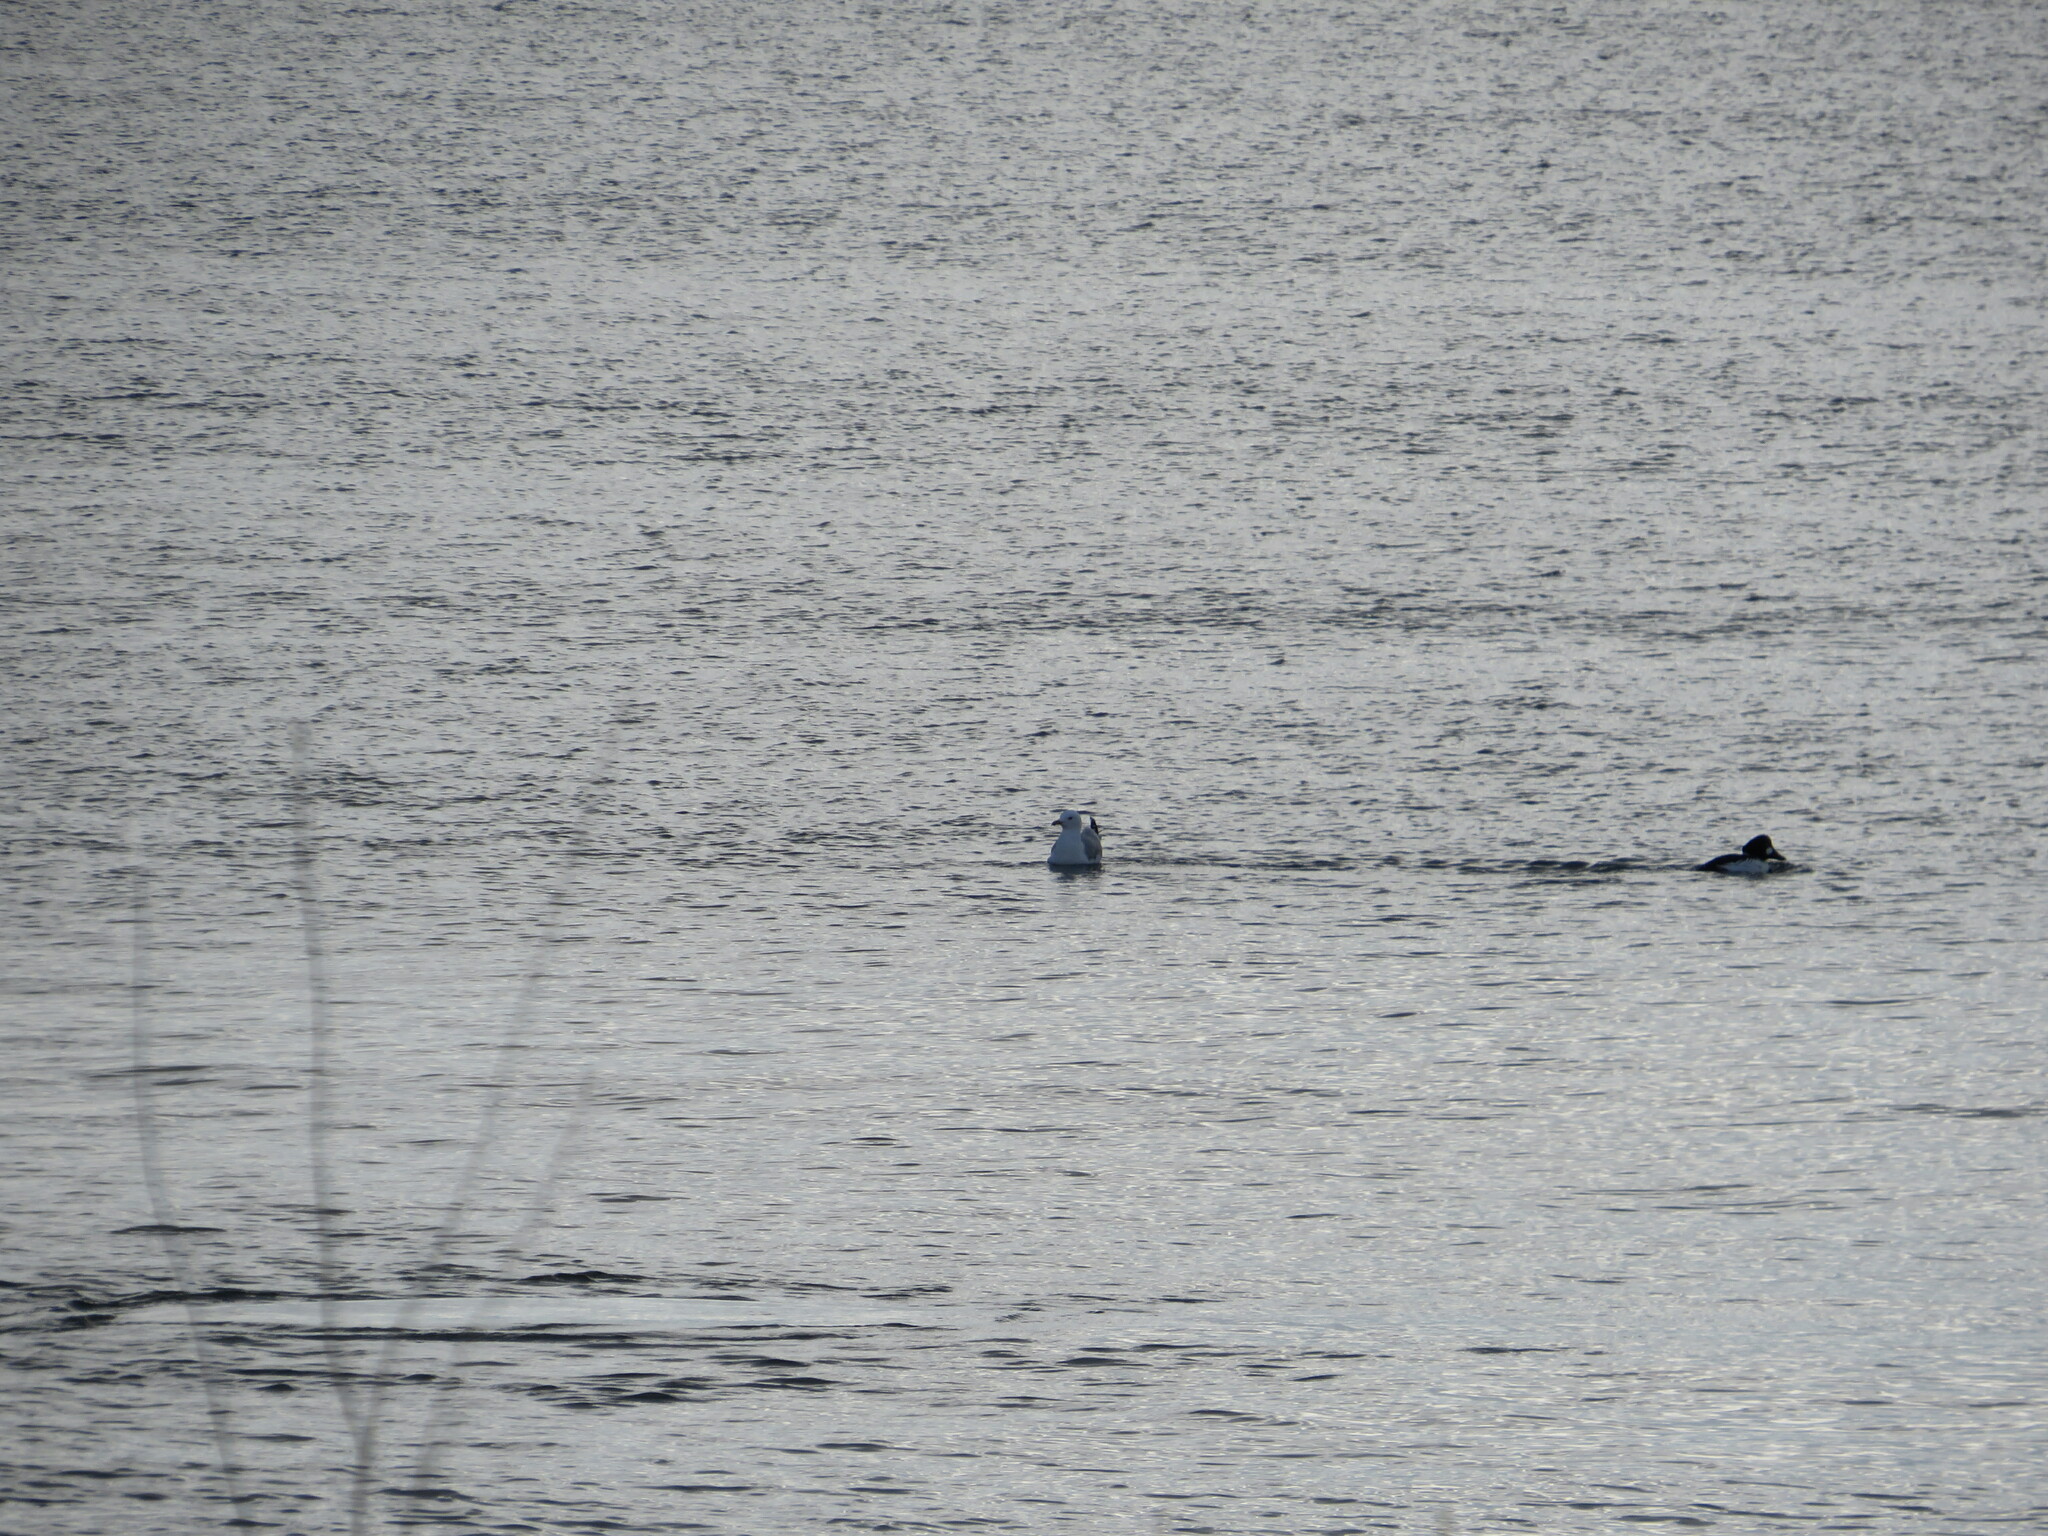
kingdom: Animalia
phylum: Chordata
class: Aves
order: Anseriformes
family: Anatidae
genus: Bucephala
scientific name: Bucephala clangula
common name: Common goldeneye
